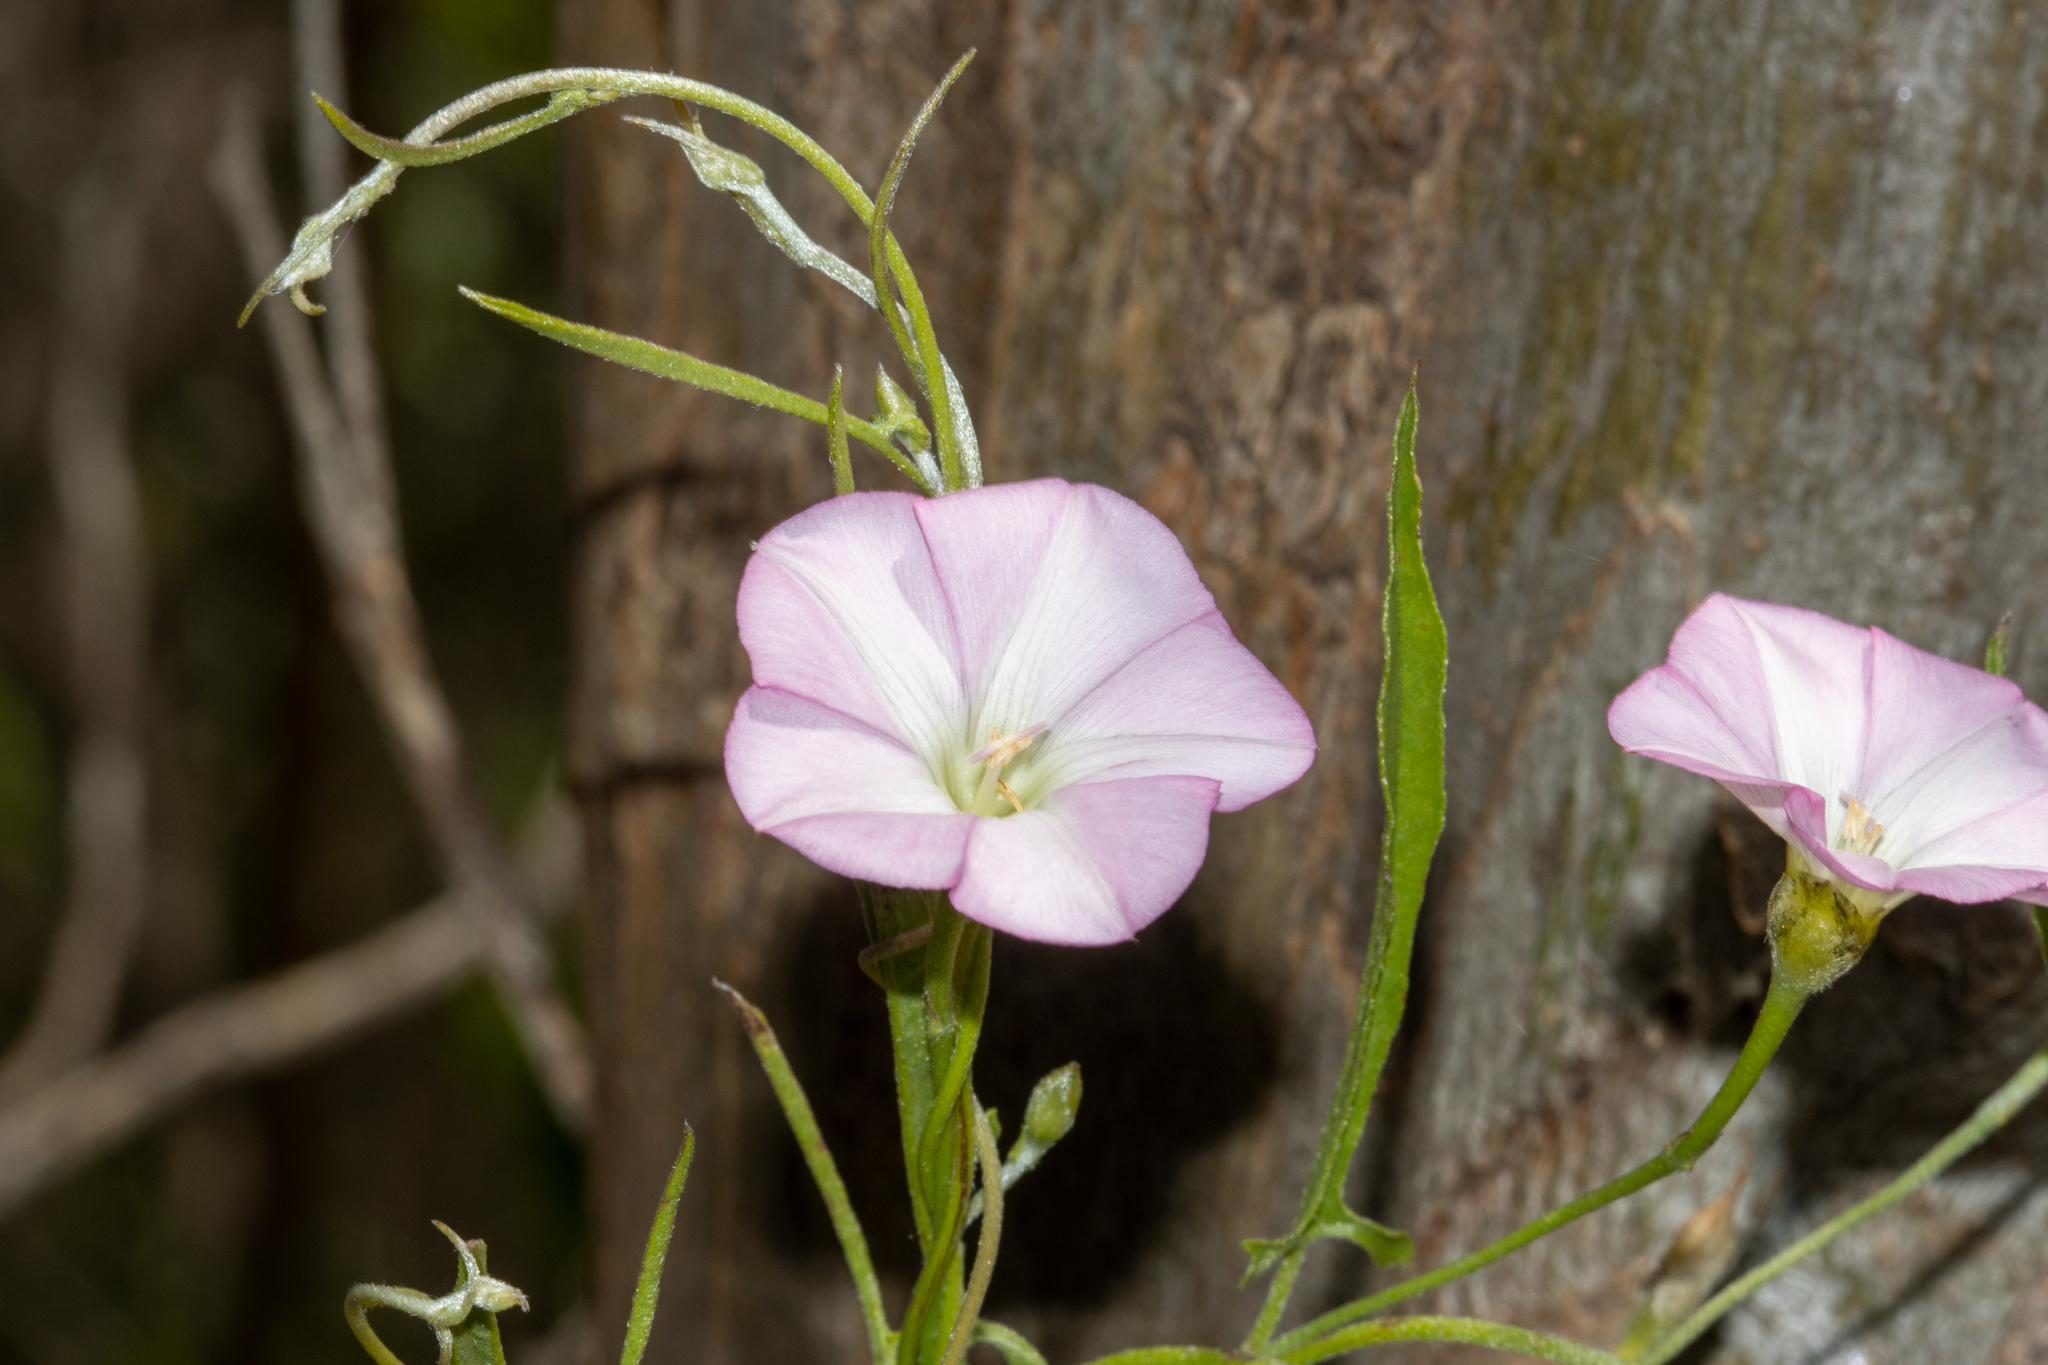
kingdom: Plantae
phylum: Tracheophyta
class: Magnoliopsida
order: Solanales
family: Convolvulaceae
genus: Convolvulus
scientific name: Convolvulus angustissimus
